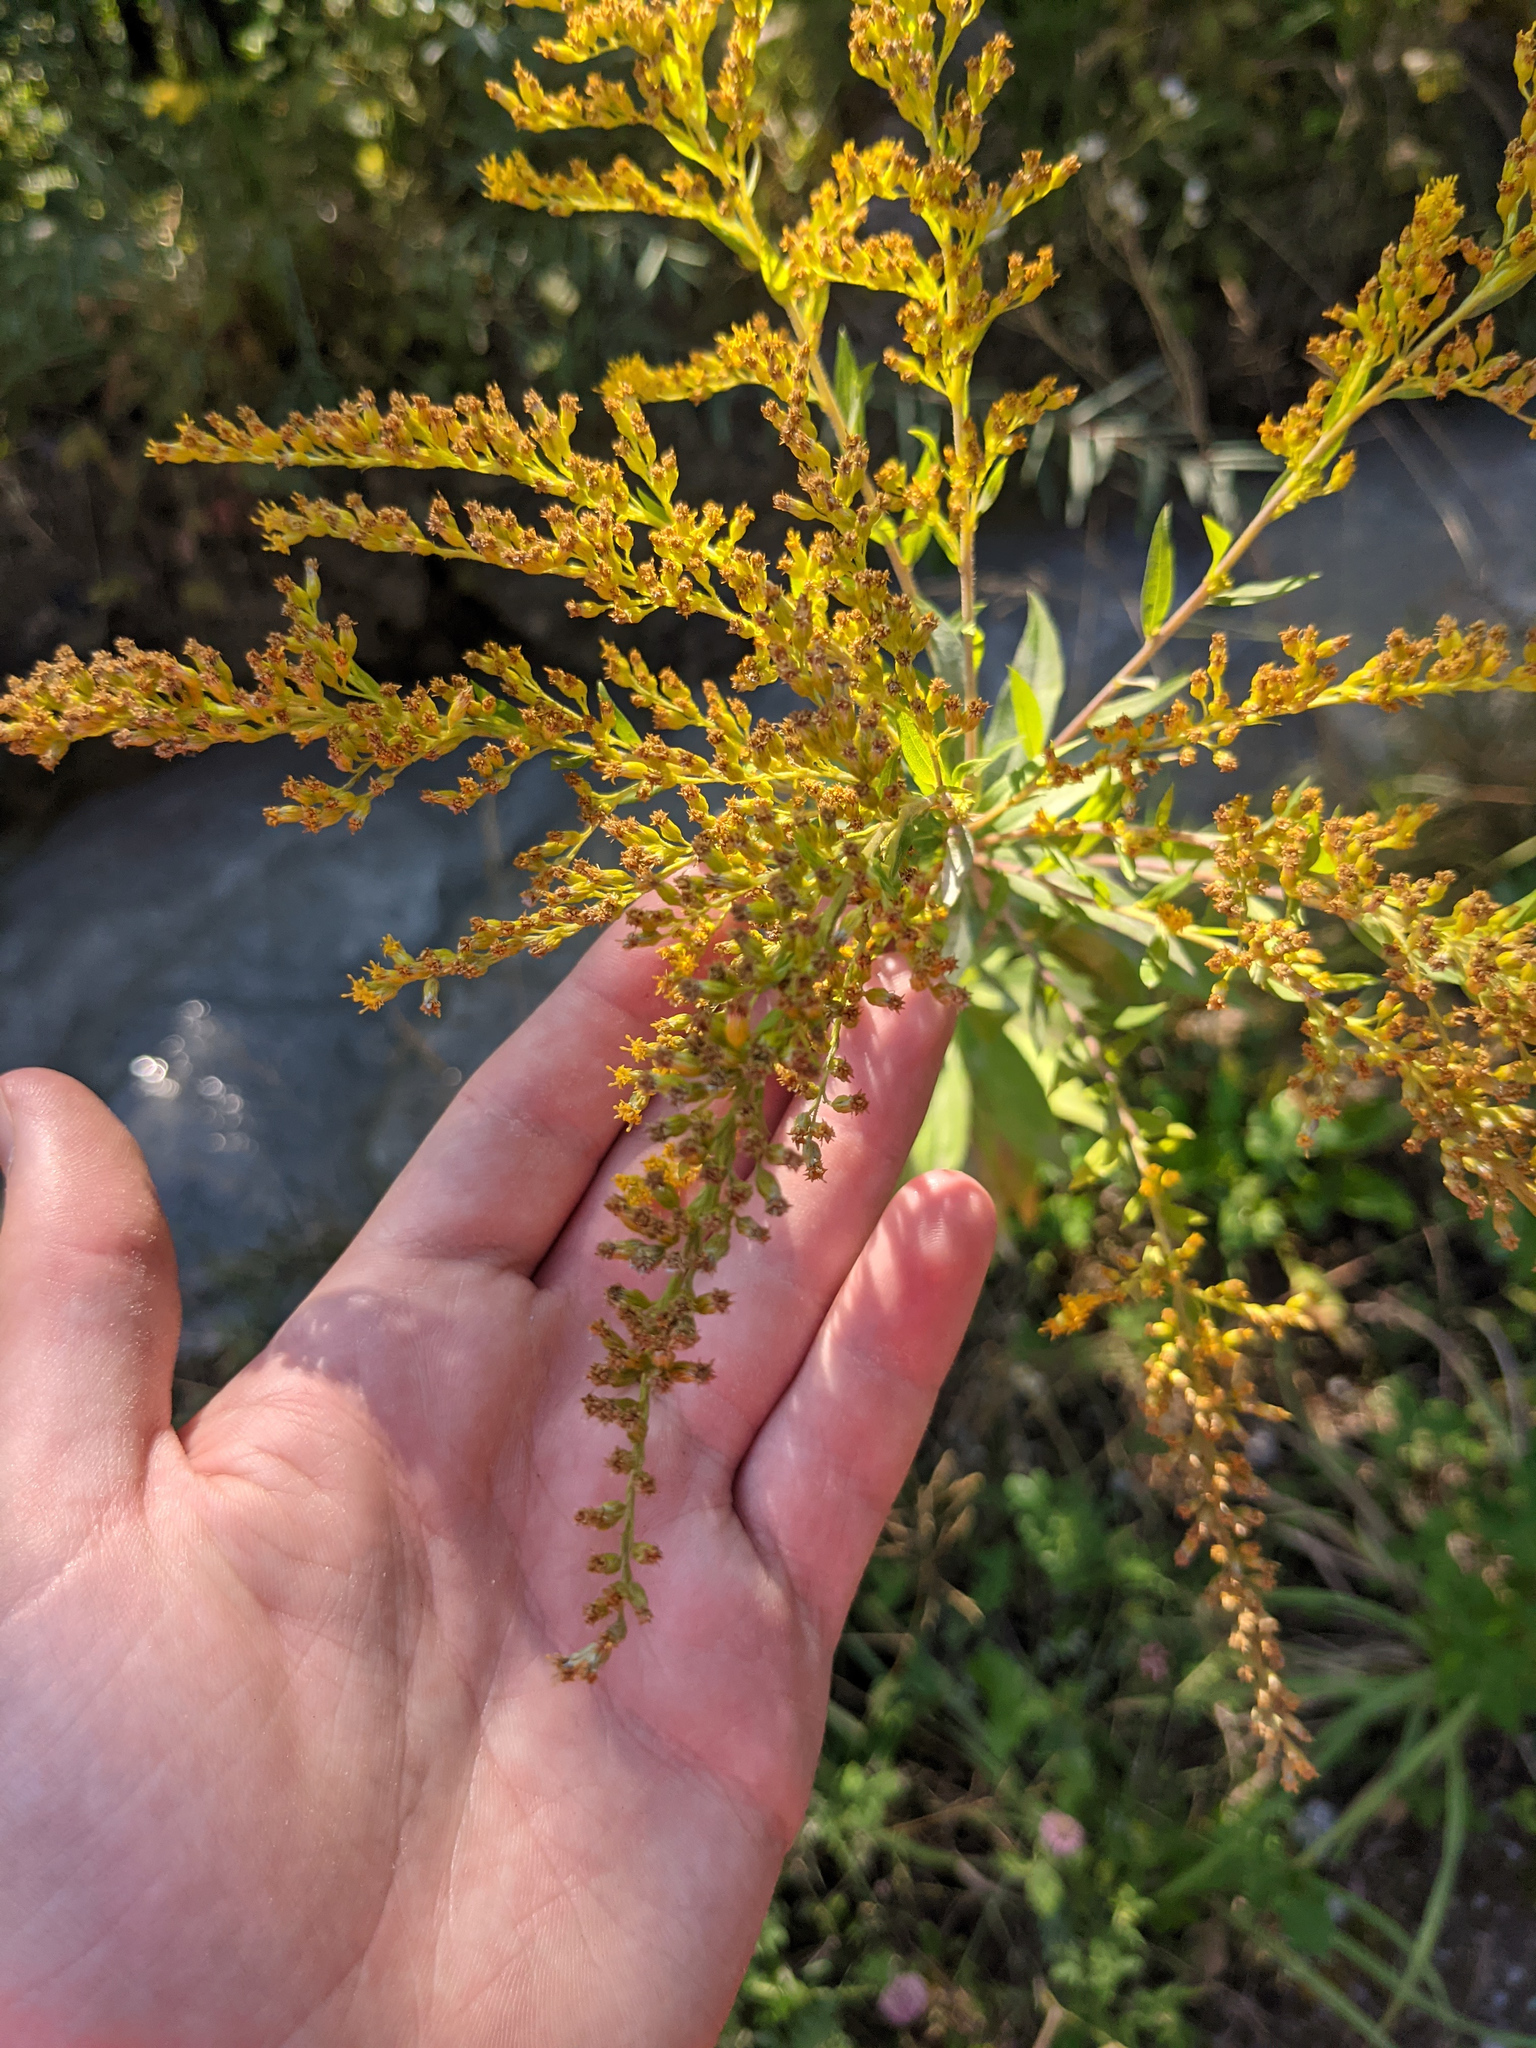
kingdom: Plantae
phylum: Tracheophyta
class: Magnoliopsida
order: Asterales
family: Asteraceae
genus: Solidago
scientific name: Solidago canadensis
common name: Canada goldenrod
